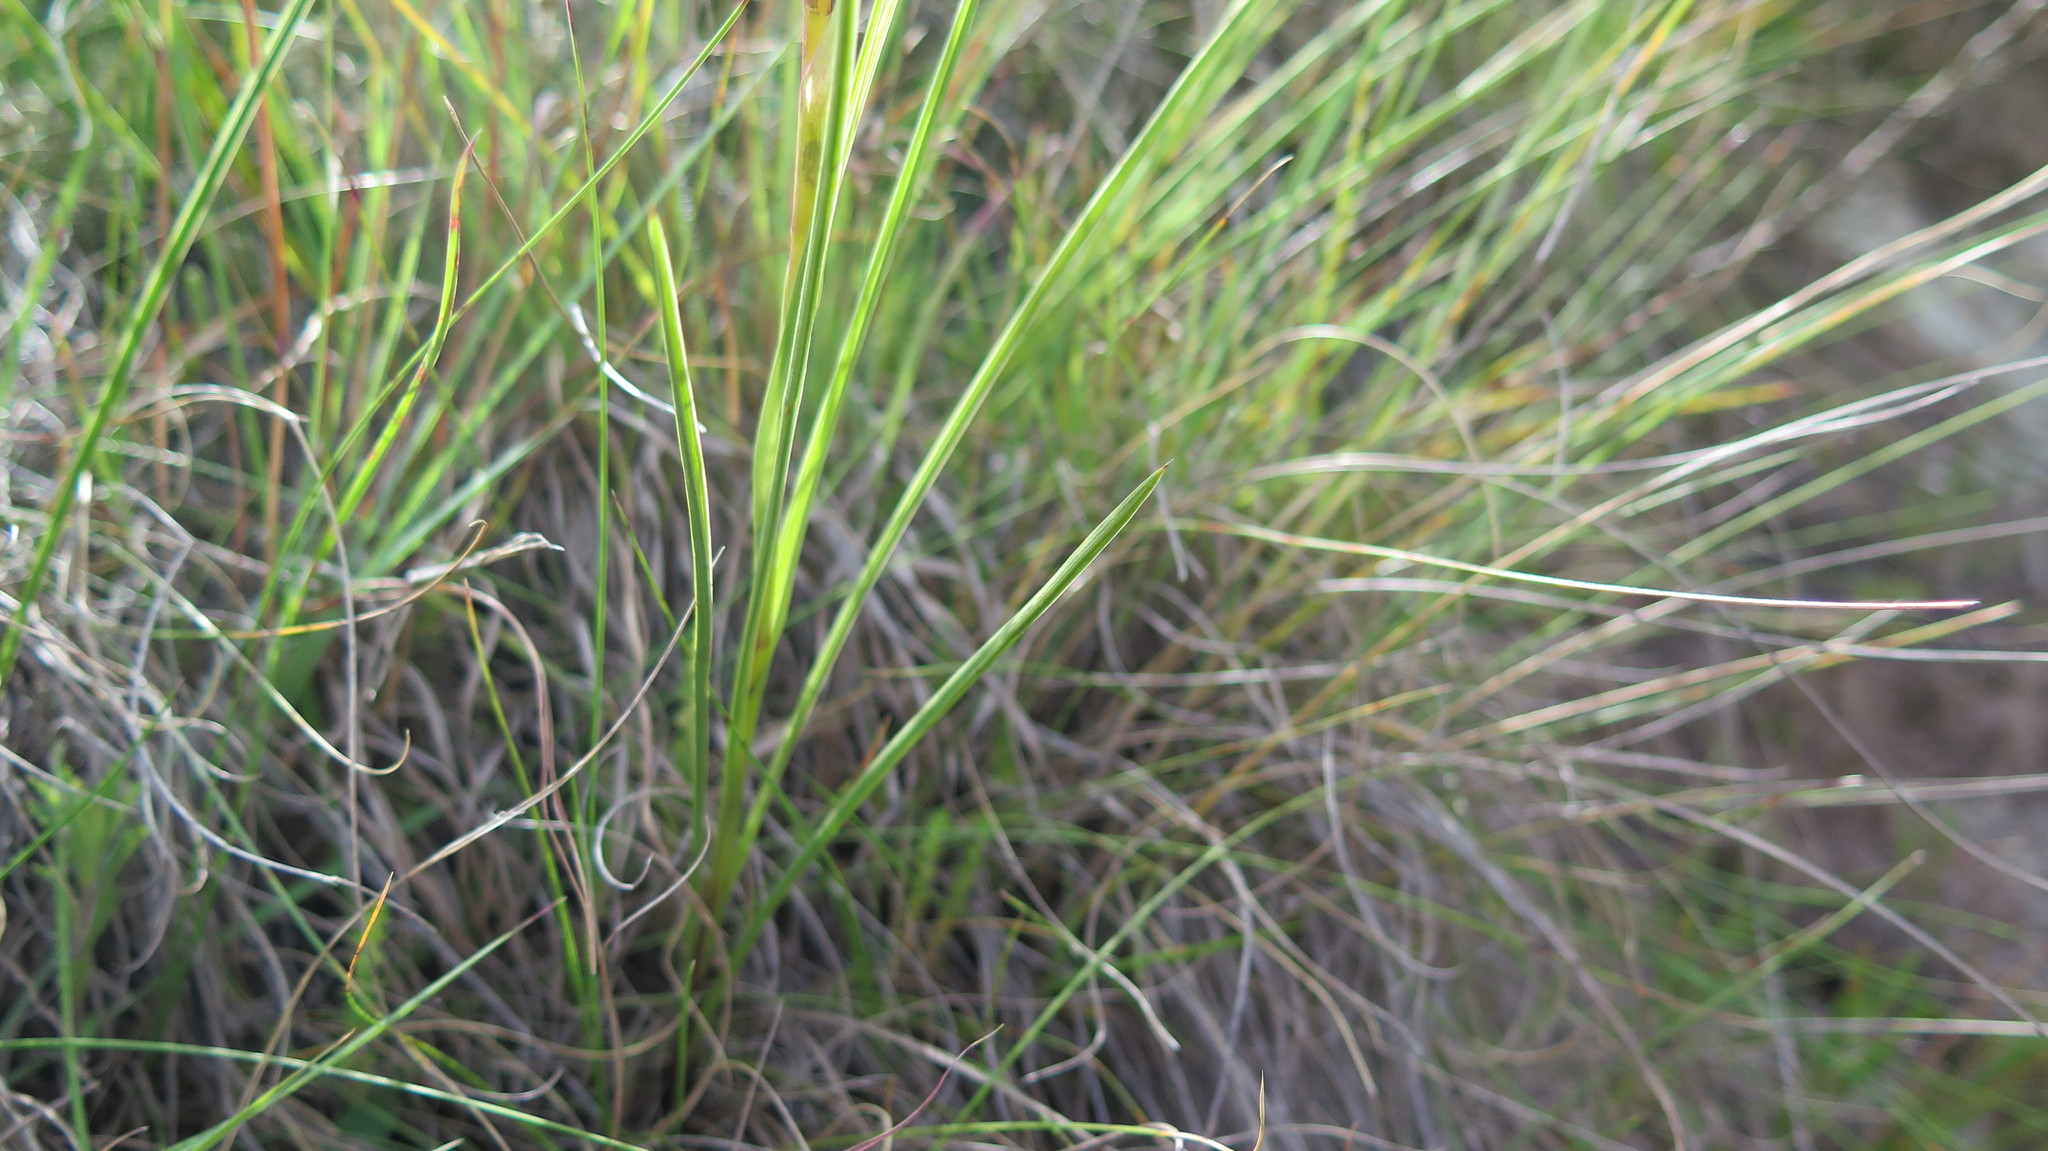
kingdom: Plantae
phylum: Tracheophyta
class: Liliopsida
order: Asparagales
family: Iridaceae
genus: Moraea
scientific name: Moraea trifida
